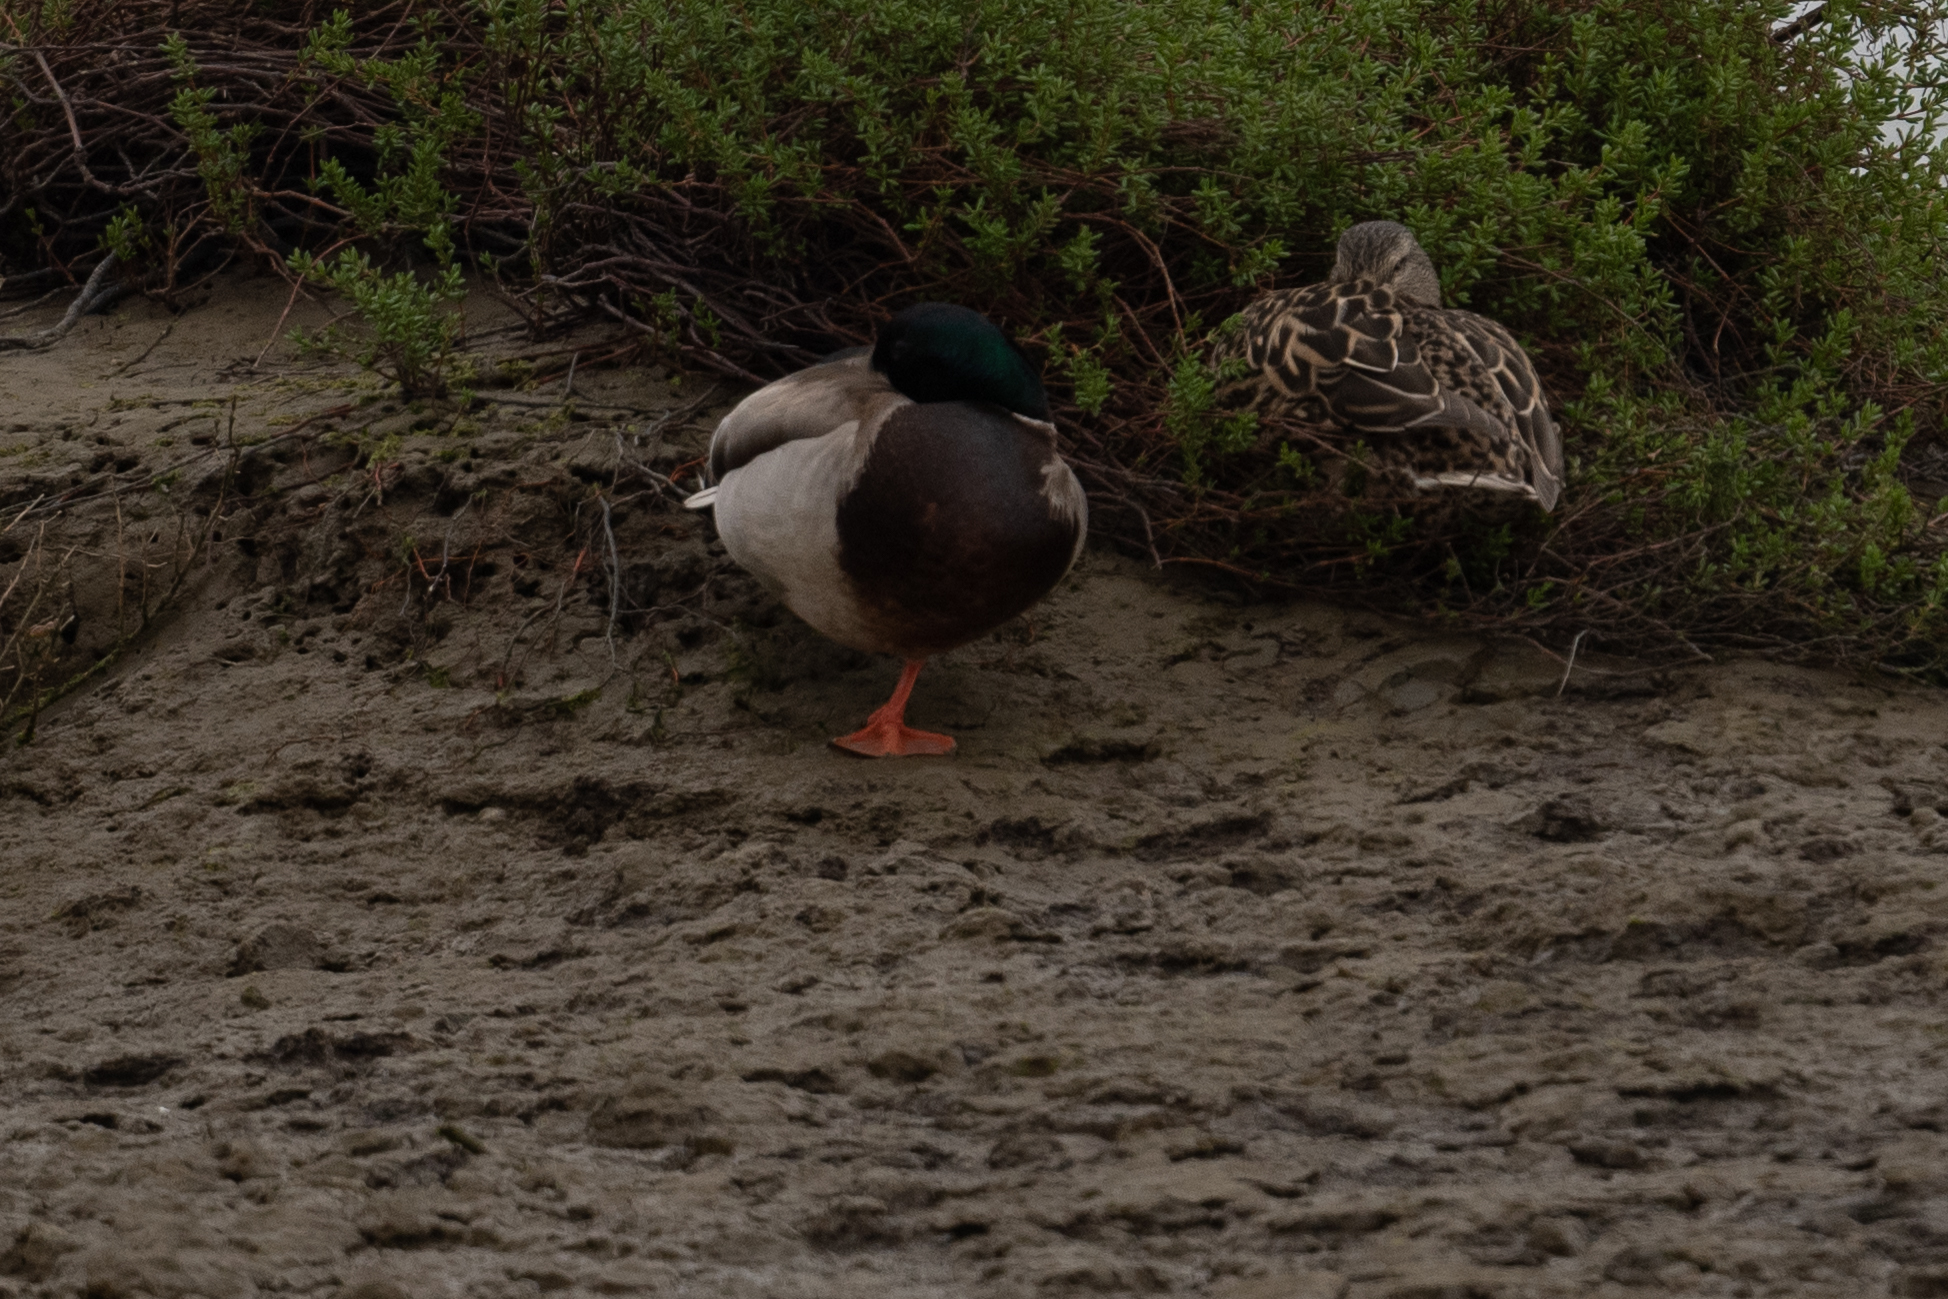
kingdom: Animalia
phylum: Chordata
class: Aves
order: Anseriformes
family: Anatidae
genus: Anas
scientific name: Anas platyrhynchos
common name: Mallard
